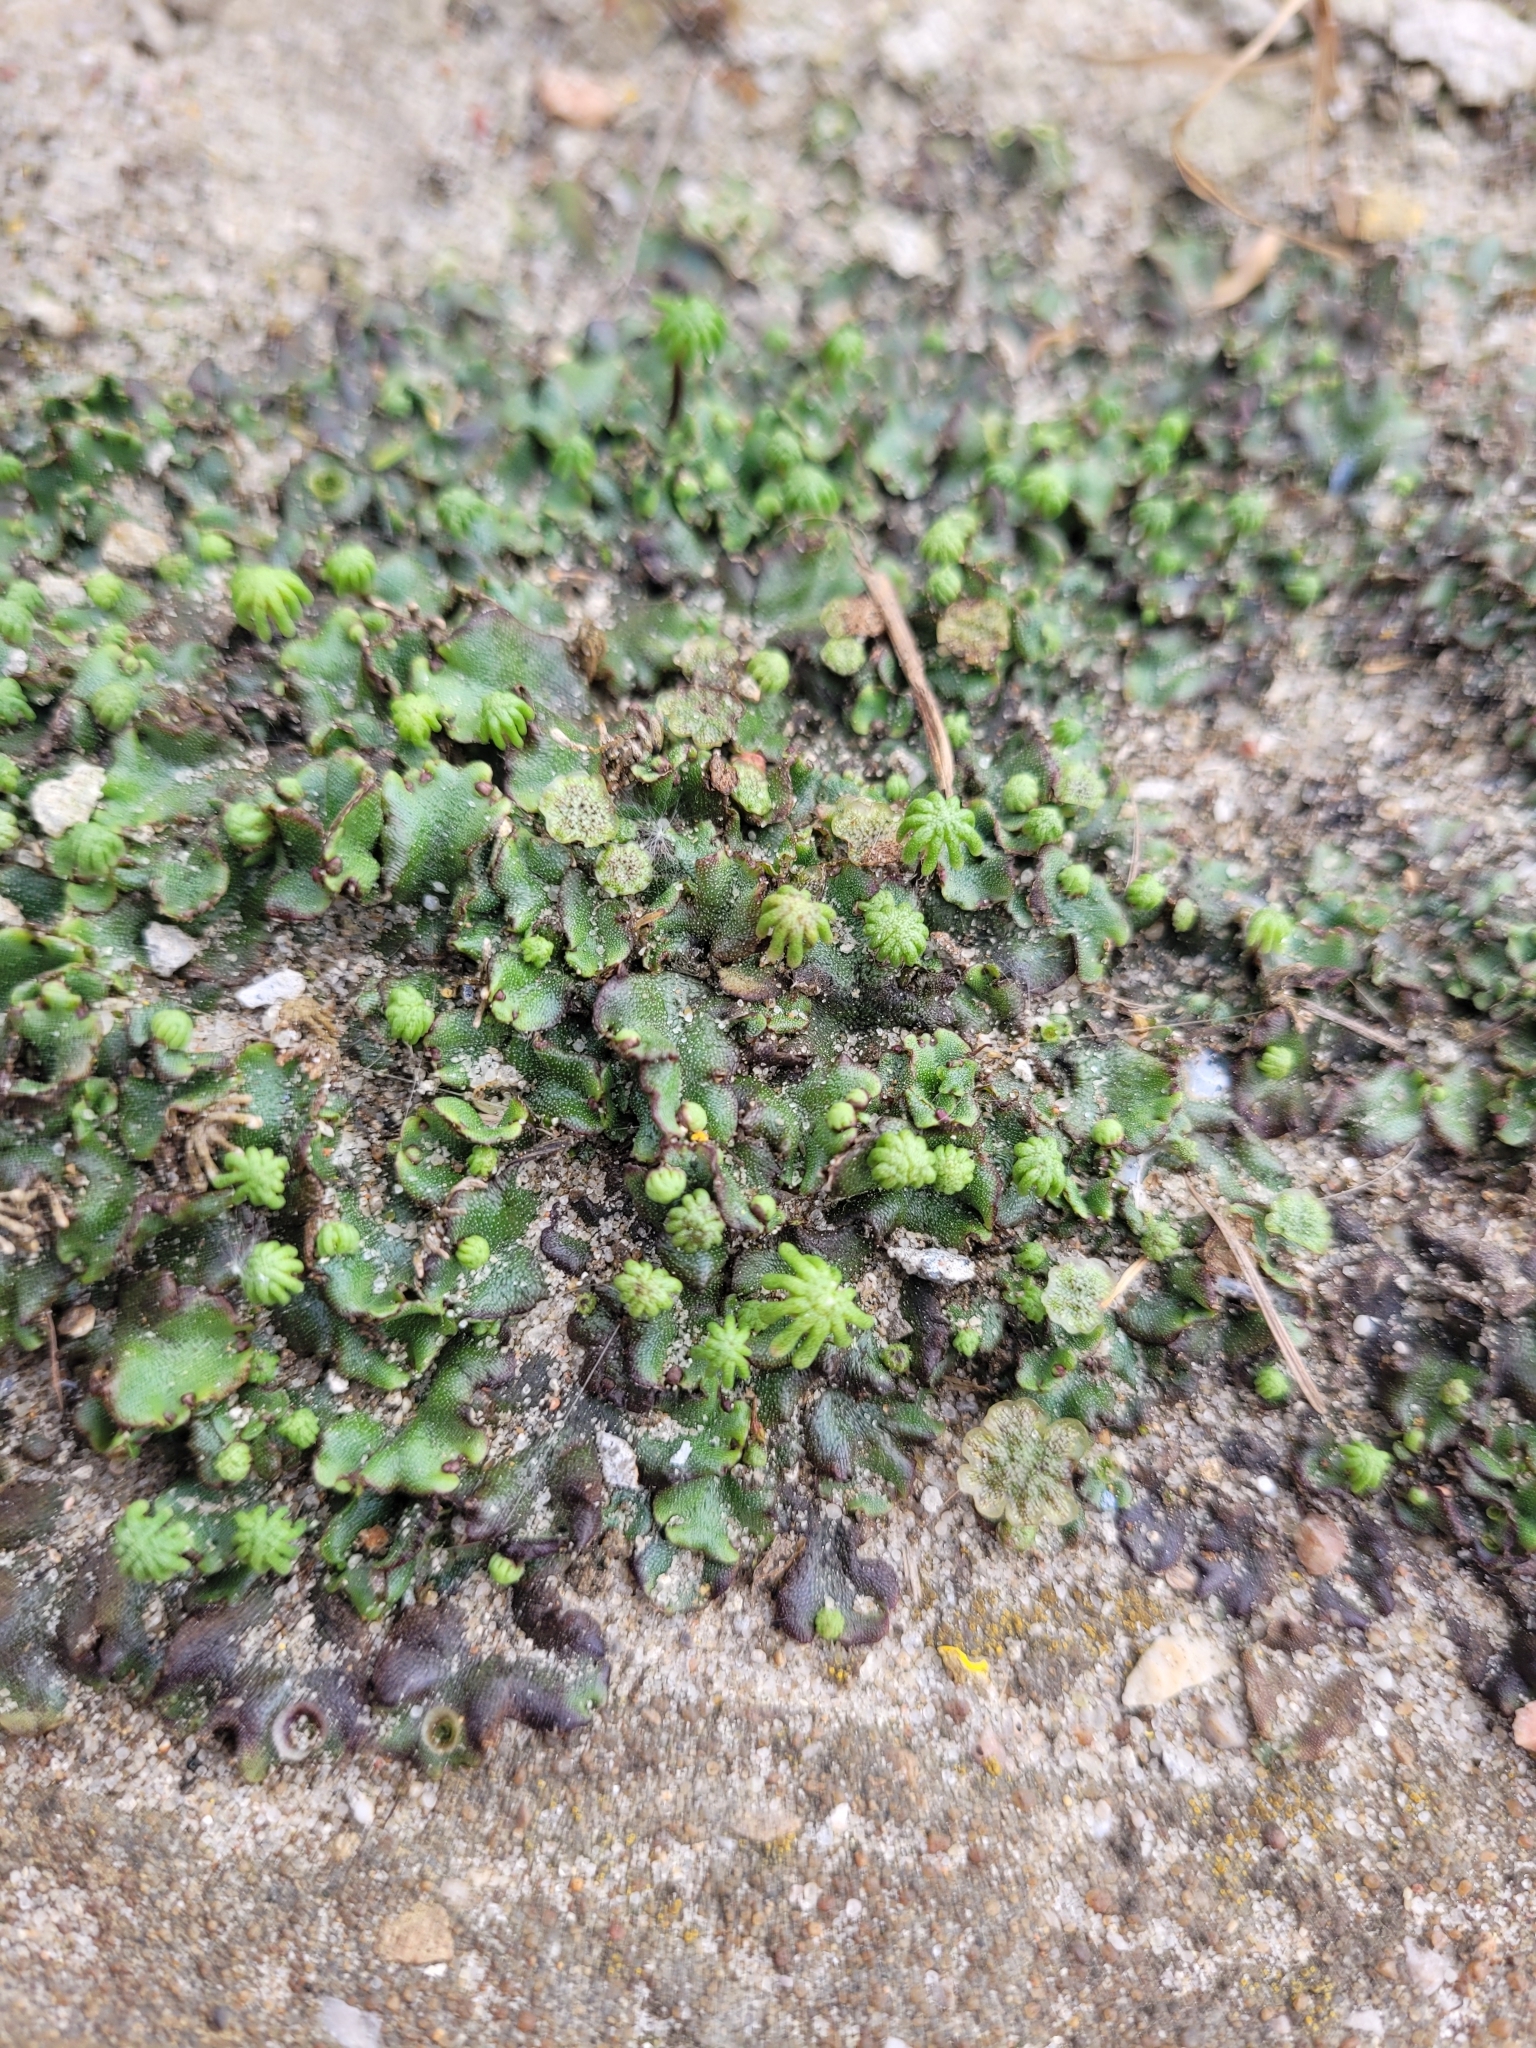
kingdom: Plantae
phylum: Marchantiophyta
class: Marchantiopsida
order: Marchantiales
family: Marchantiaceae
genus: Marchantia
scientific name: Marchantia polymorpha
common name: Common liverwort
